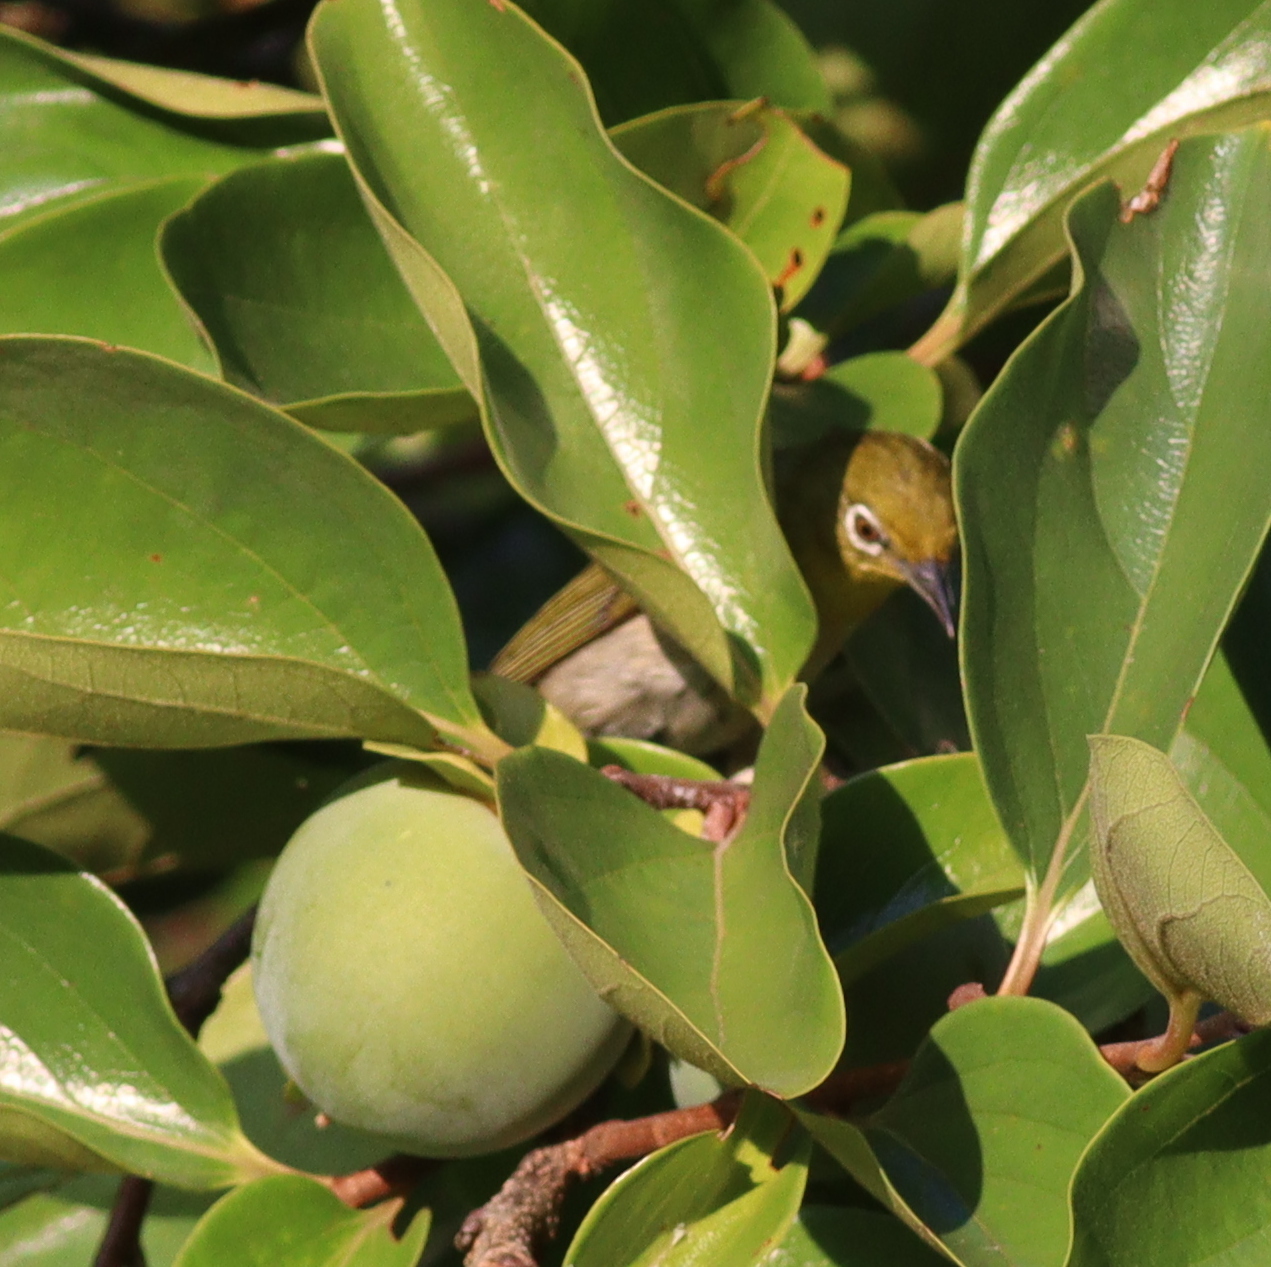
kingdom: Animalia
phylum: Chordata
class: Aves
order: Passeriformes
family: Zosteropidae
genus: Zosterops
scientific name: Zosterops japonicus
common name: Japanese white-eye
